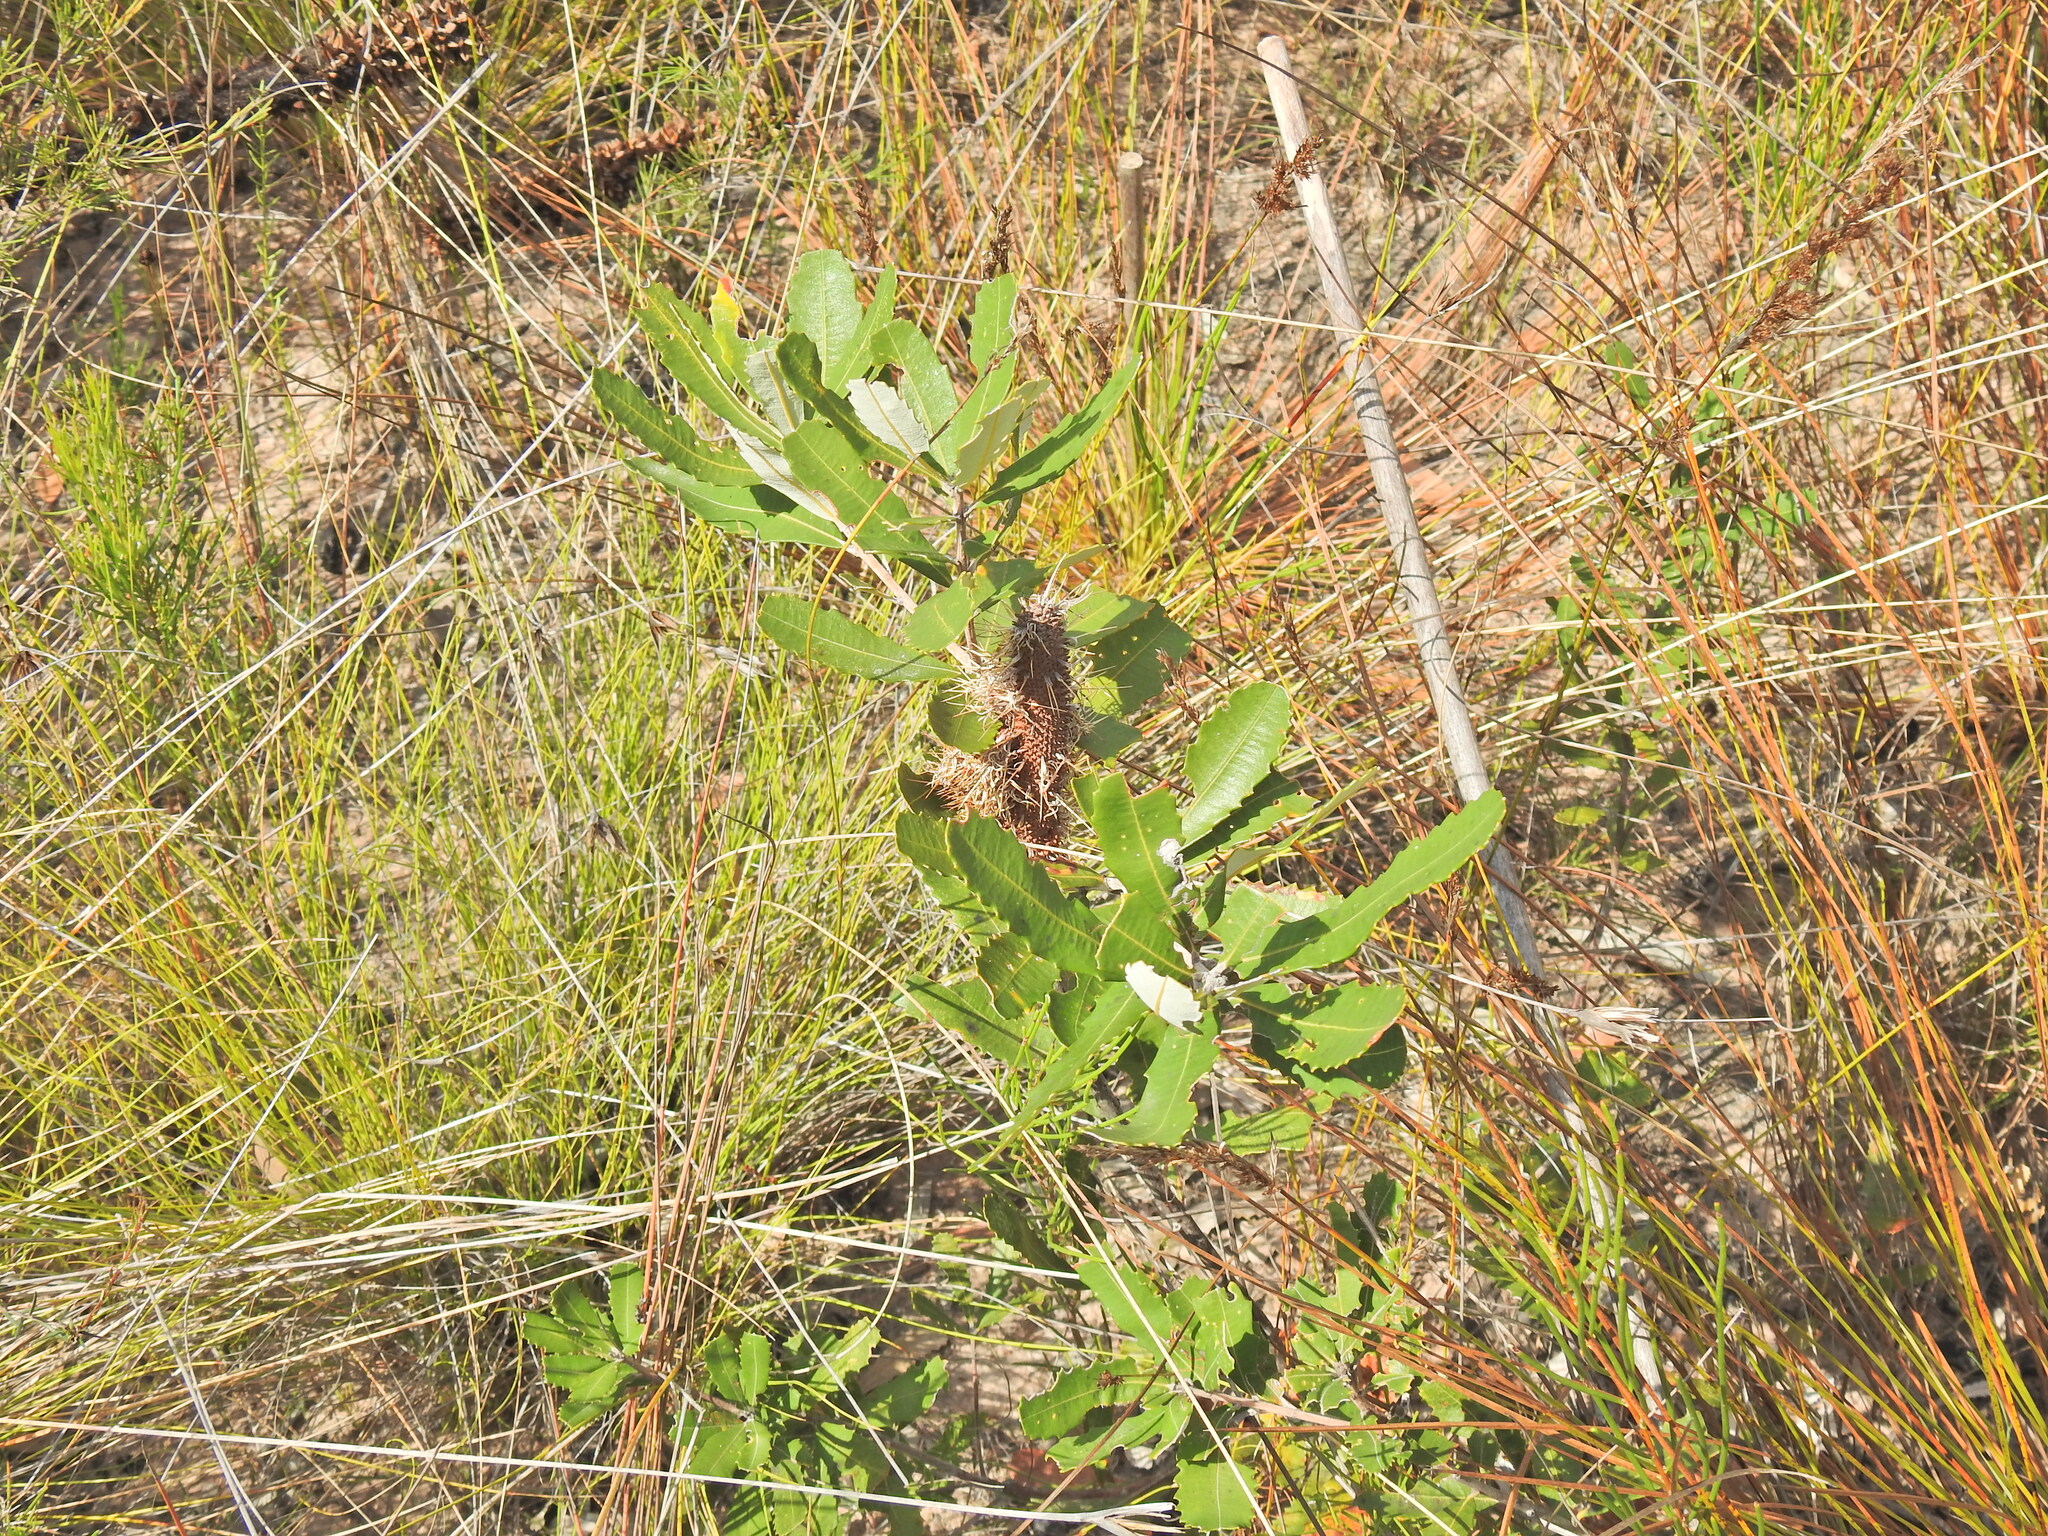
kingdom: Plantae
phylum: Tracheophyta
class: Magnoliopsida
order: Proteales
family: Proteaceae
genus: Banksia
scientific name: Banksia oblongifolia
